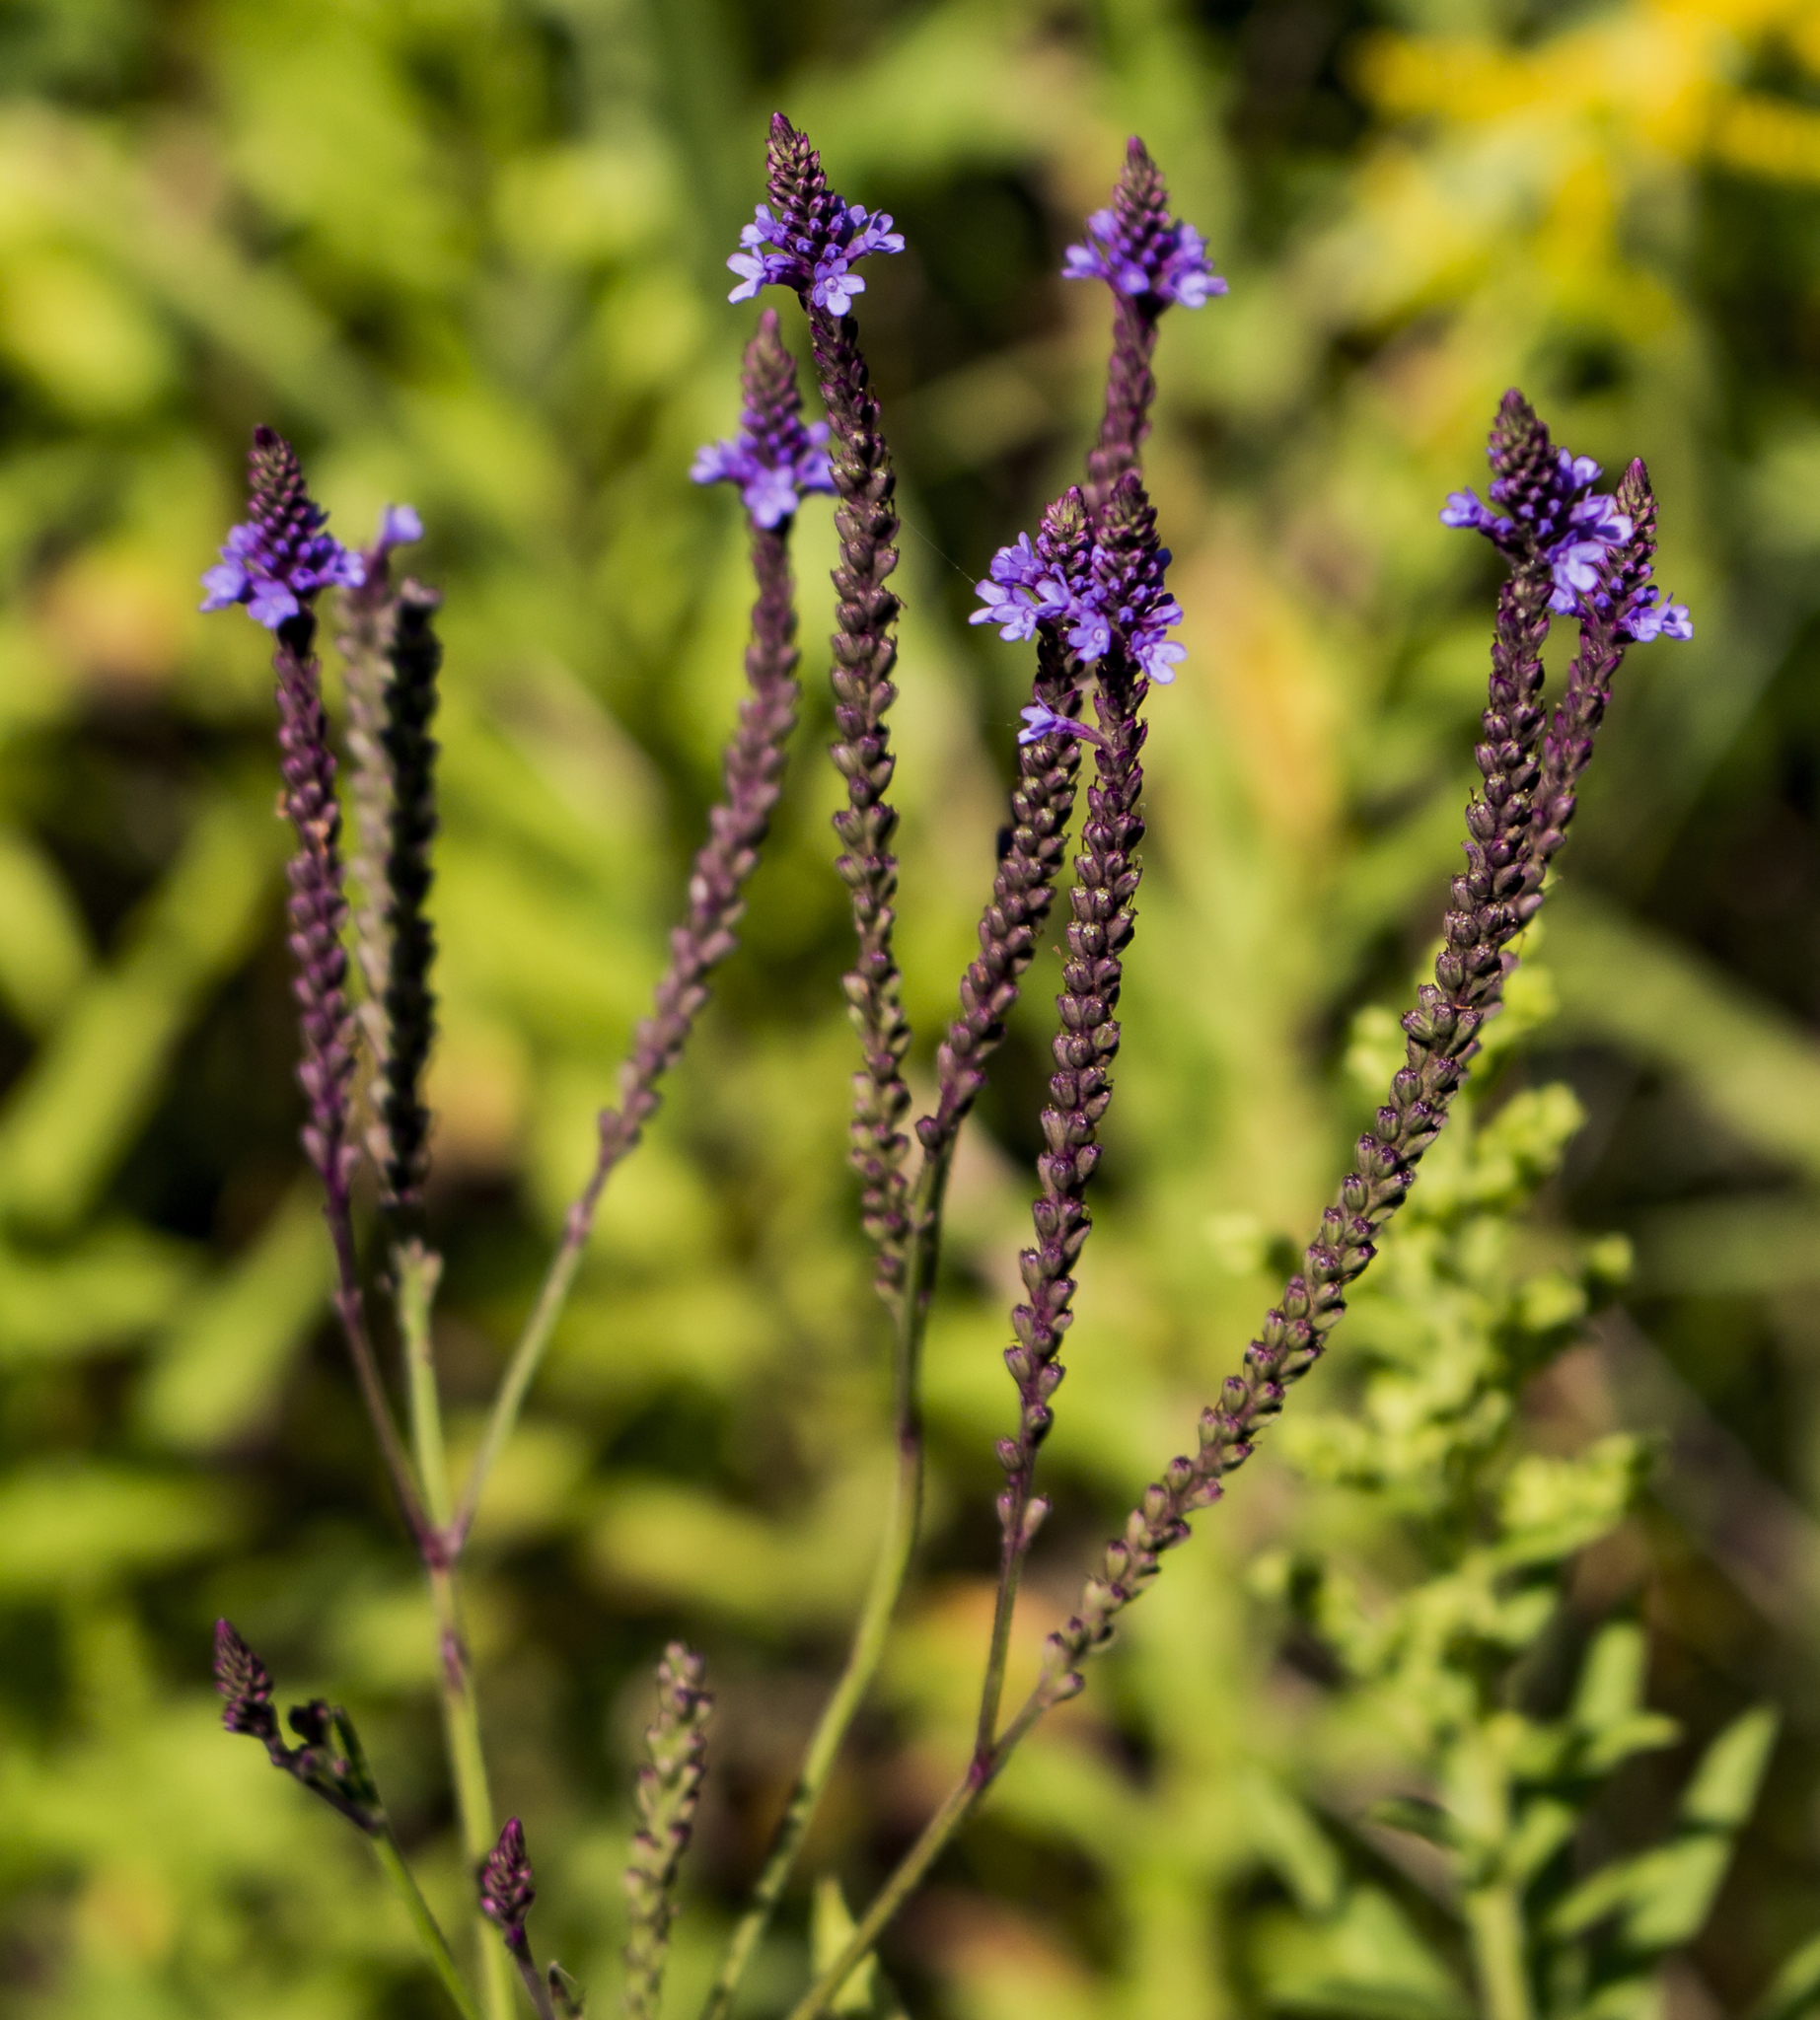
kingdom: Plantae
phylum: Tracheophyta
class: Magnoliopsida
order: Lamiales
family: Verbenaceae
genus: Verbena
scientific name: Verbena hastata
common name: American blue vervain
